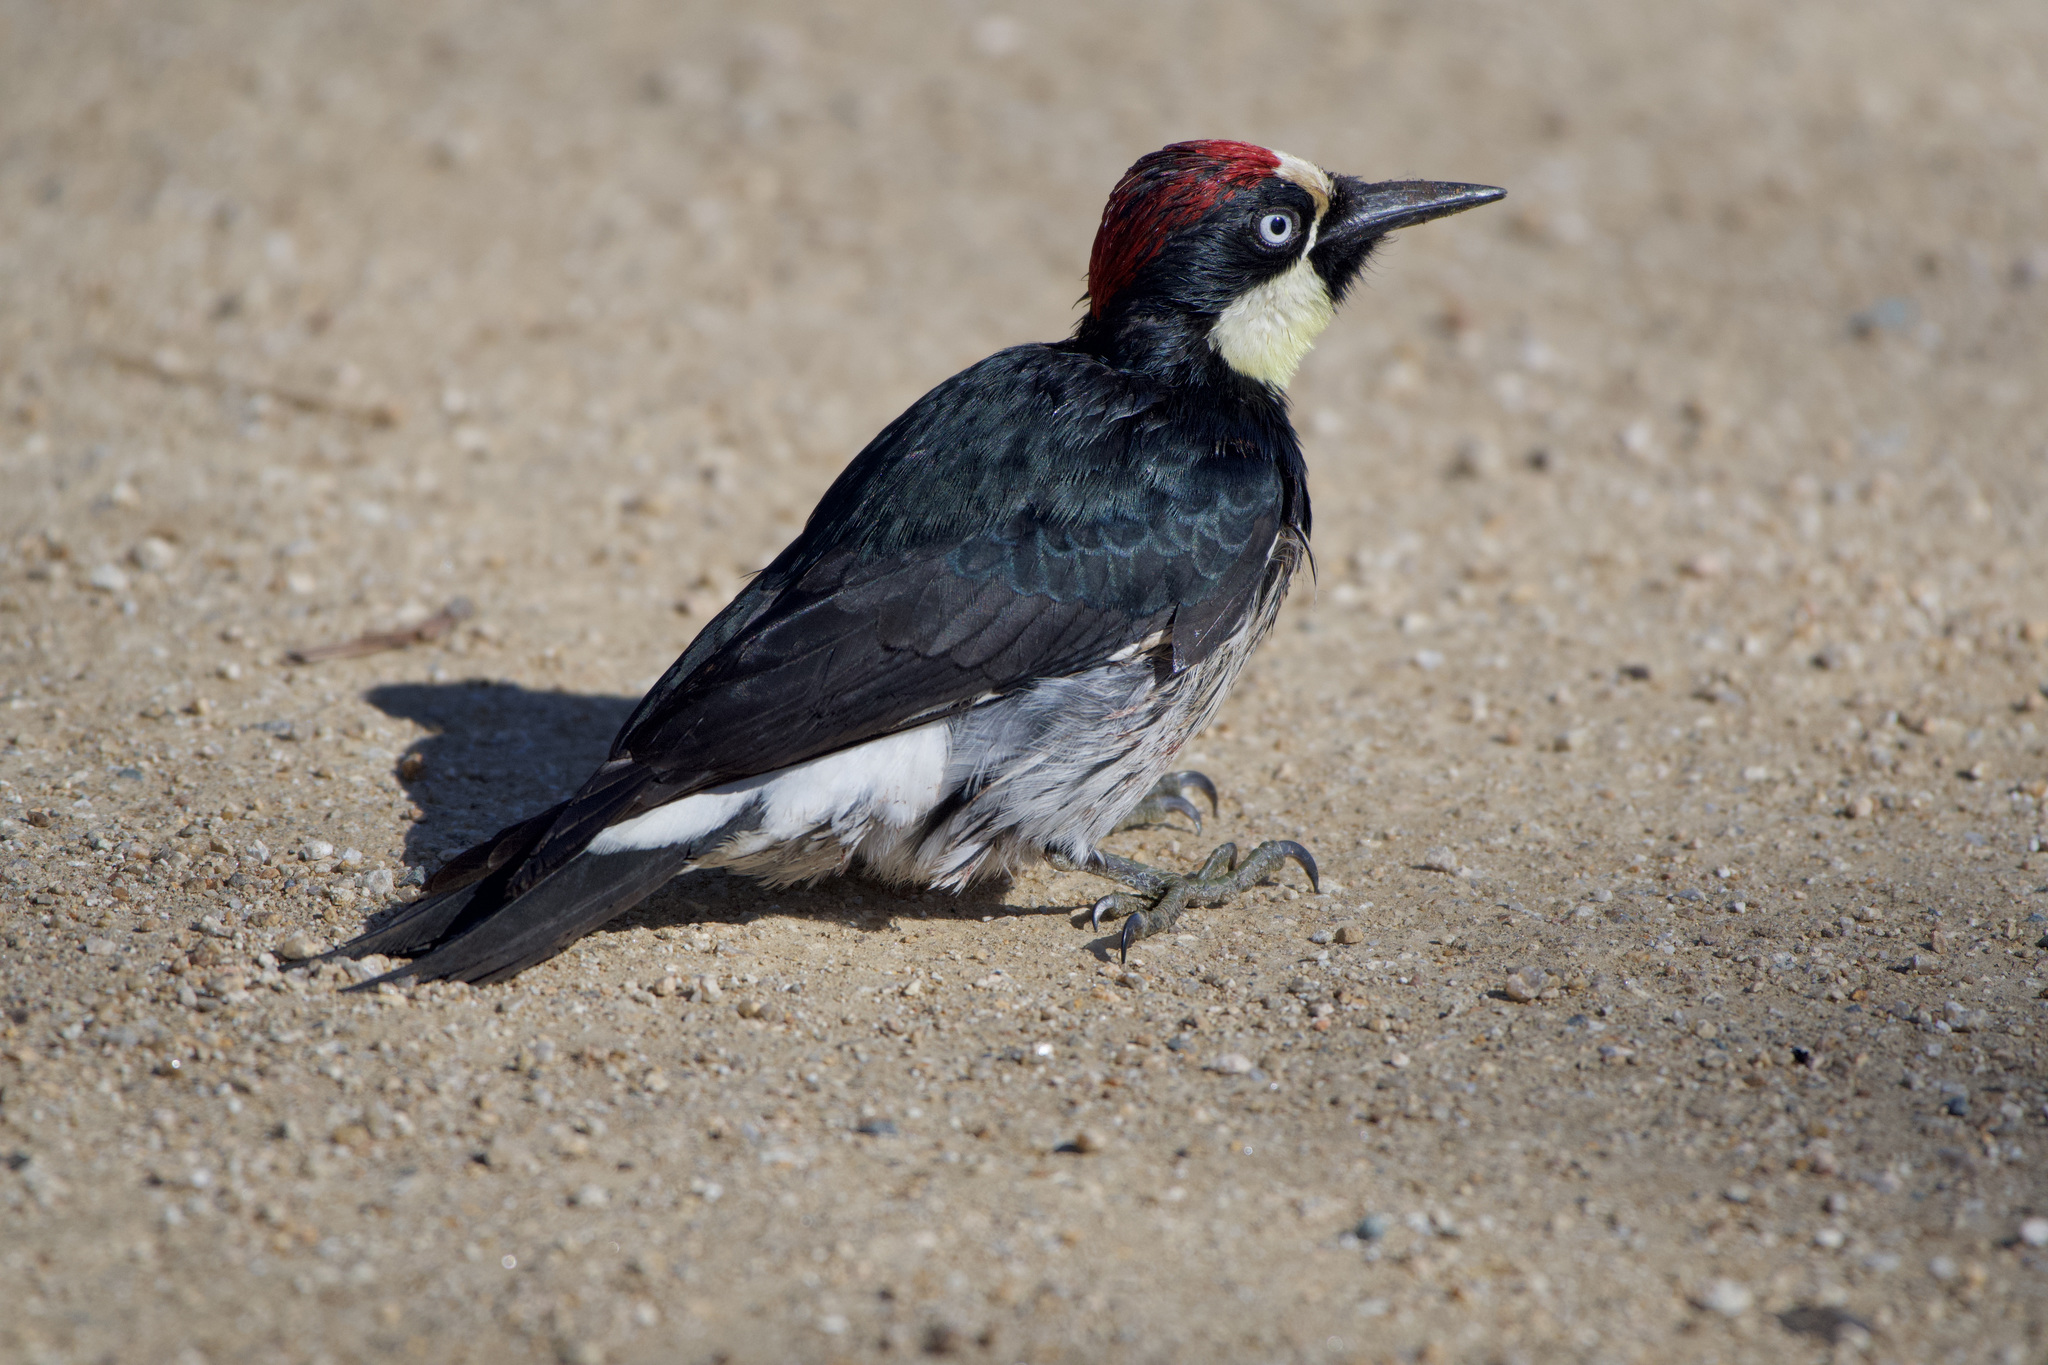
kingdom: Animalia
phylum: Chordata
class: Aves
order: Piciformes
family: Picidae
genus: Melanerpes
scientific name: Melanerpes formicivorus
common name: Acorn woodpecker
